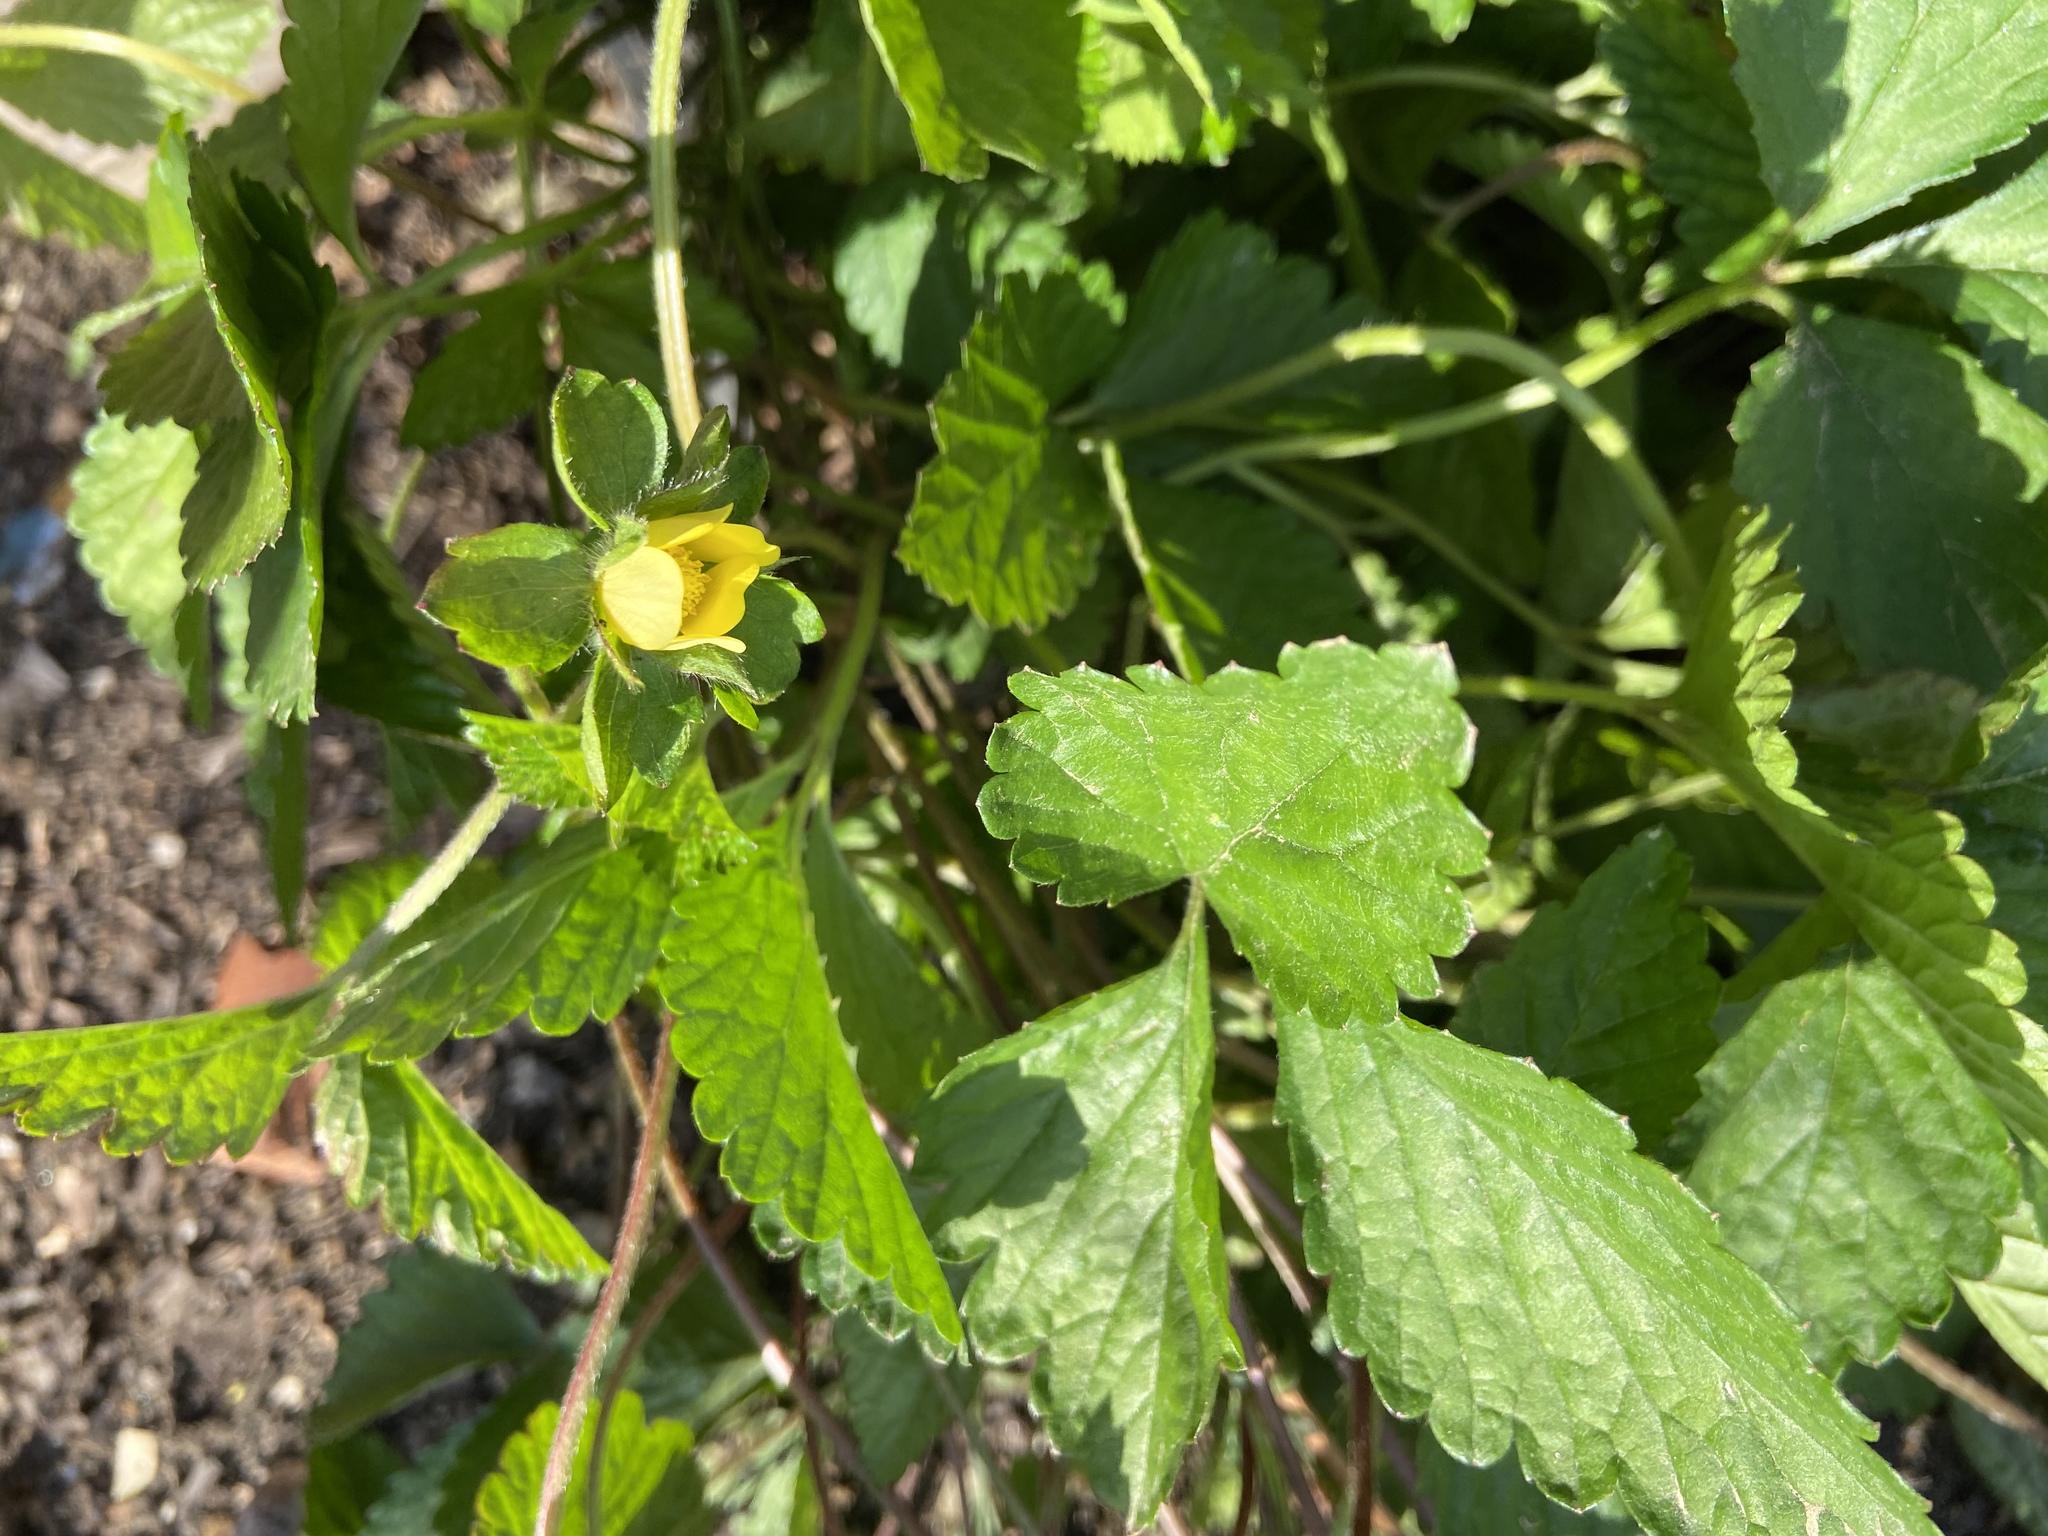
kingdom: Plantae
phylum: Tracheophyta
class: Magnoliopsida
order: Rosales
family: Rosaceae
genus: Potentilla
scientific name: Potentilla indica
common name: Yellow-flowered strawberry
